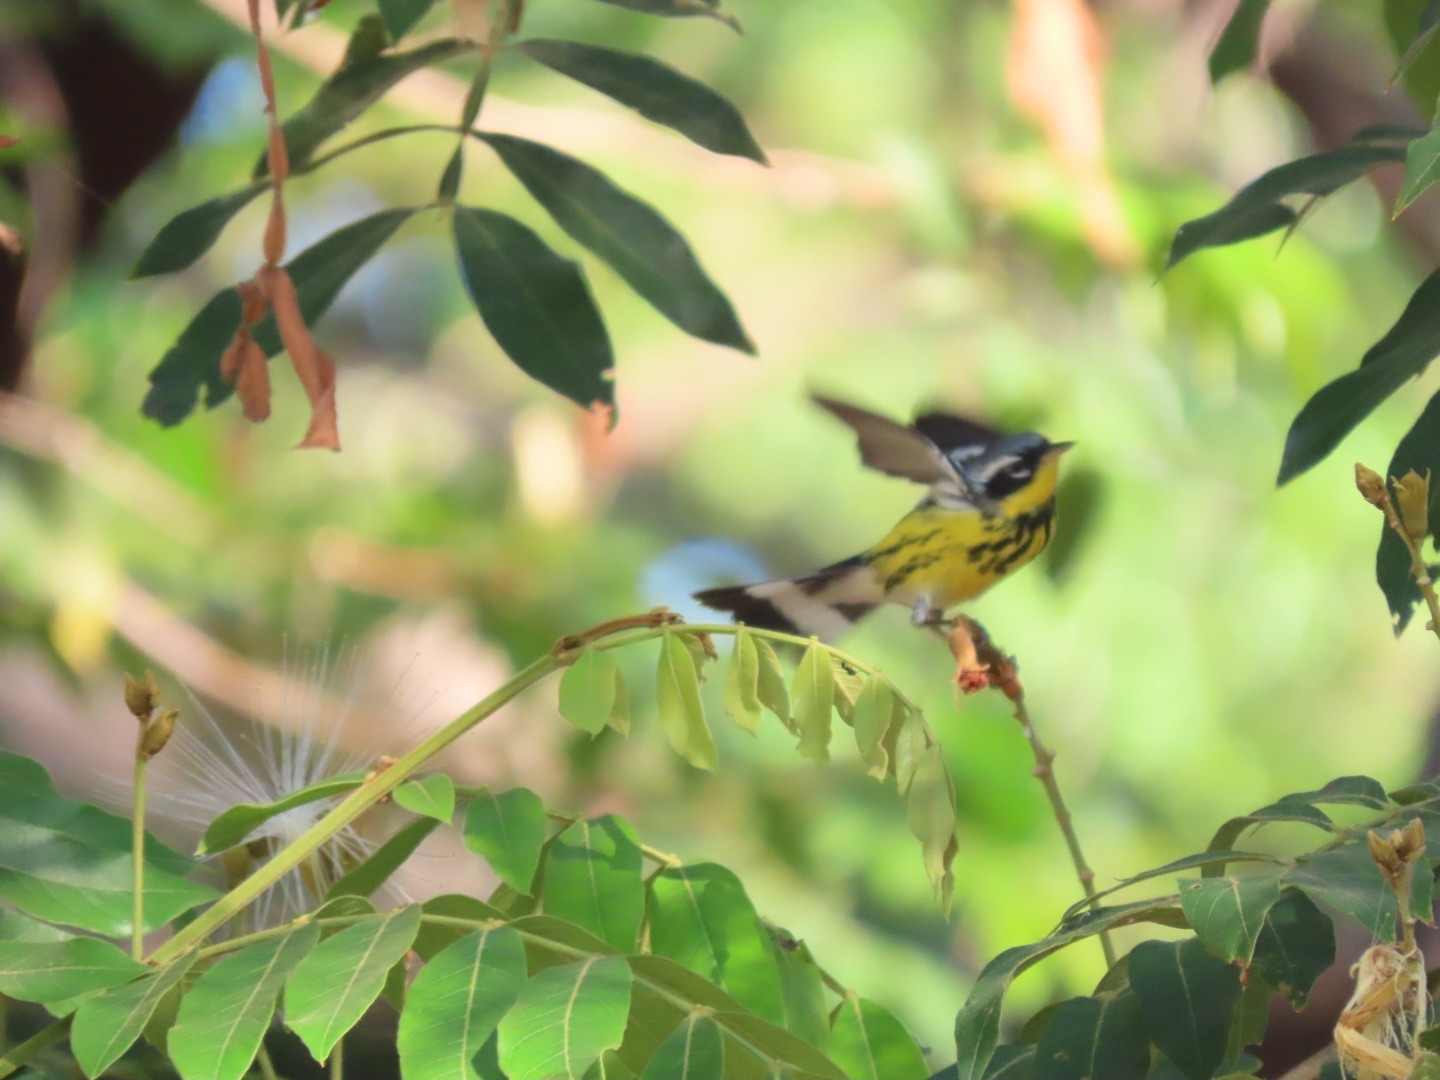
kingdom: Animalia
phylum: Chordata
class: Aves
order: Passeriformes
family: Parulidae
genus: Setophaga
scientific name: Setophaga magnolia
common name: Magnolia warbler
